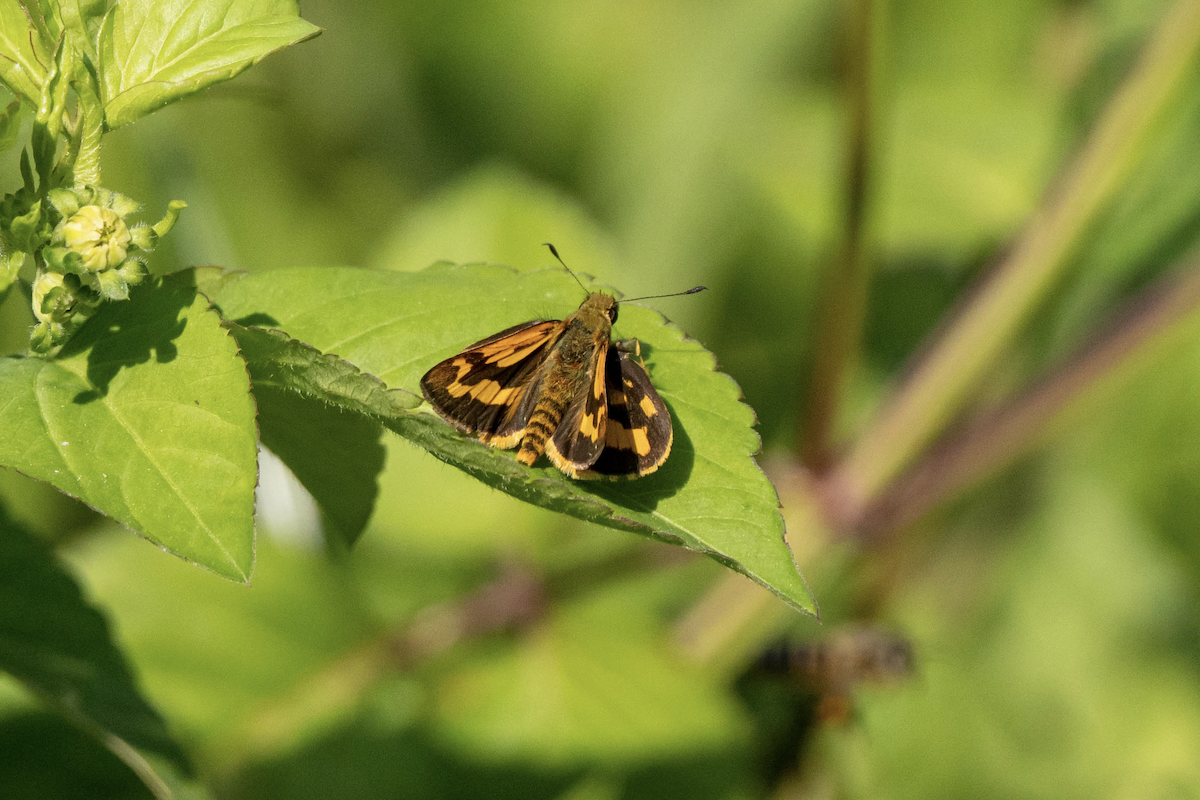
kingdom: Animalia
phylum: Arthropoda
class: Insecta
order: Lepidoptera
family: Hesperiidae
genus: Potanthus
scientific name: Potanthus confucius
